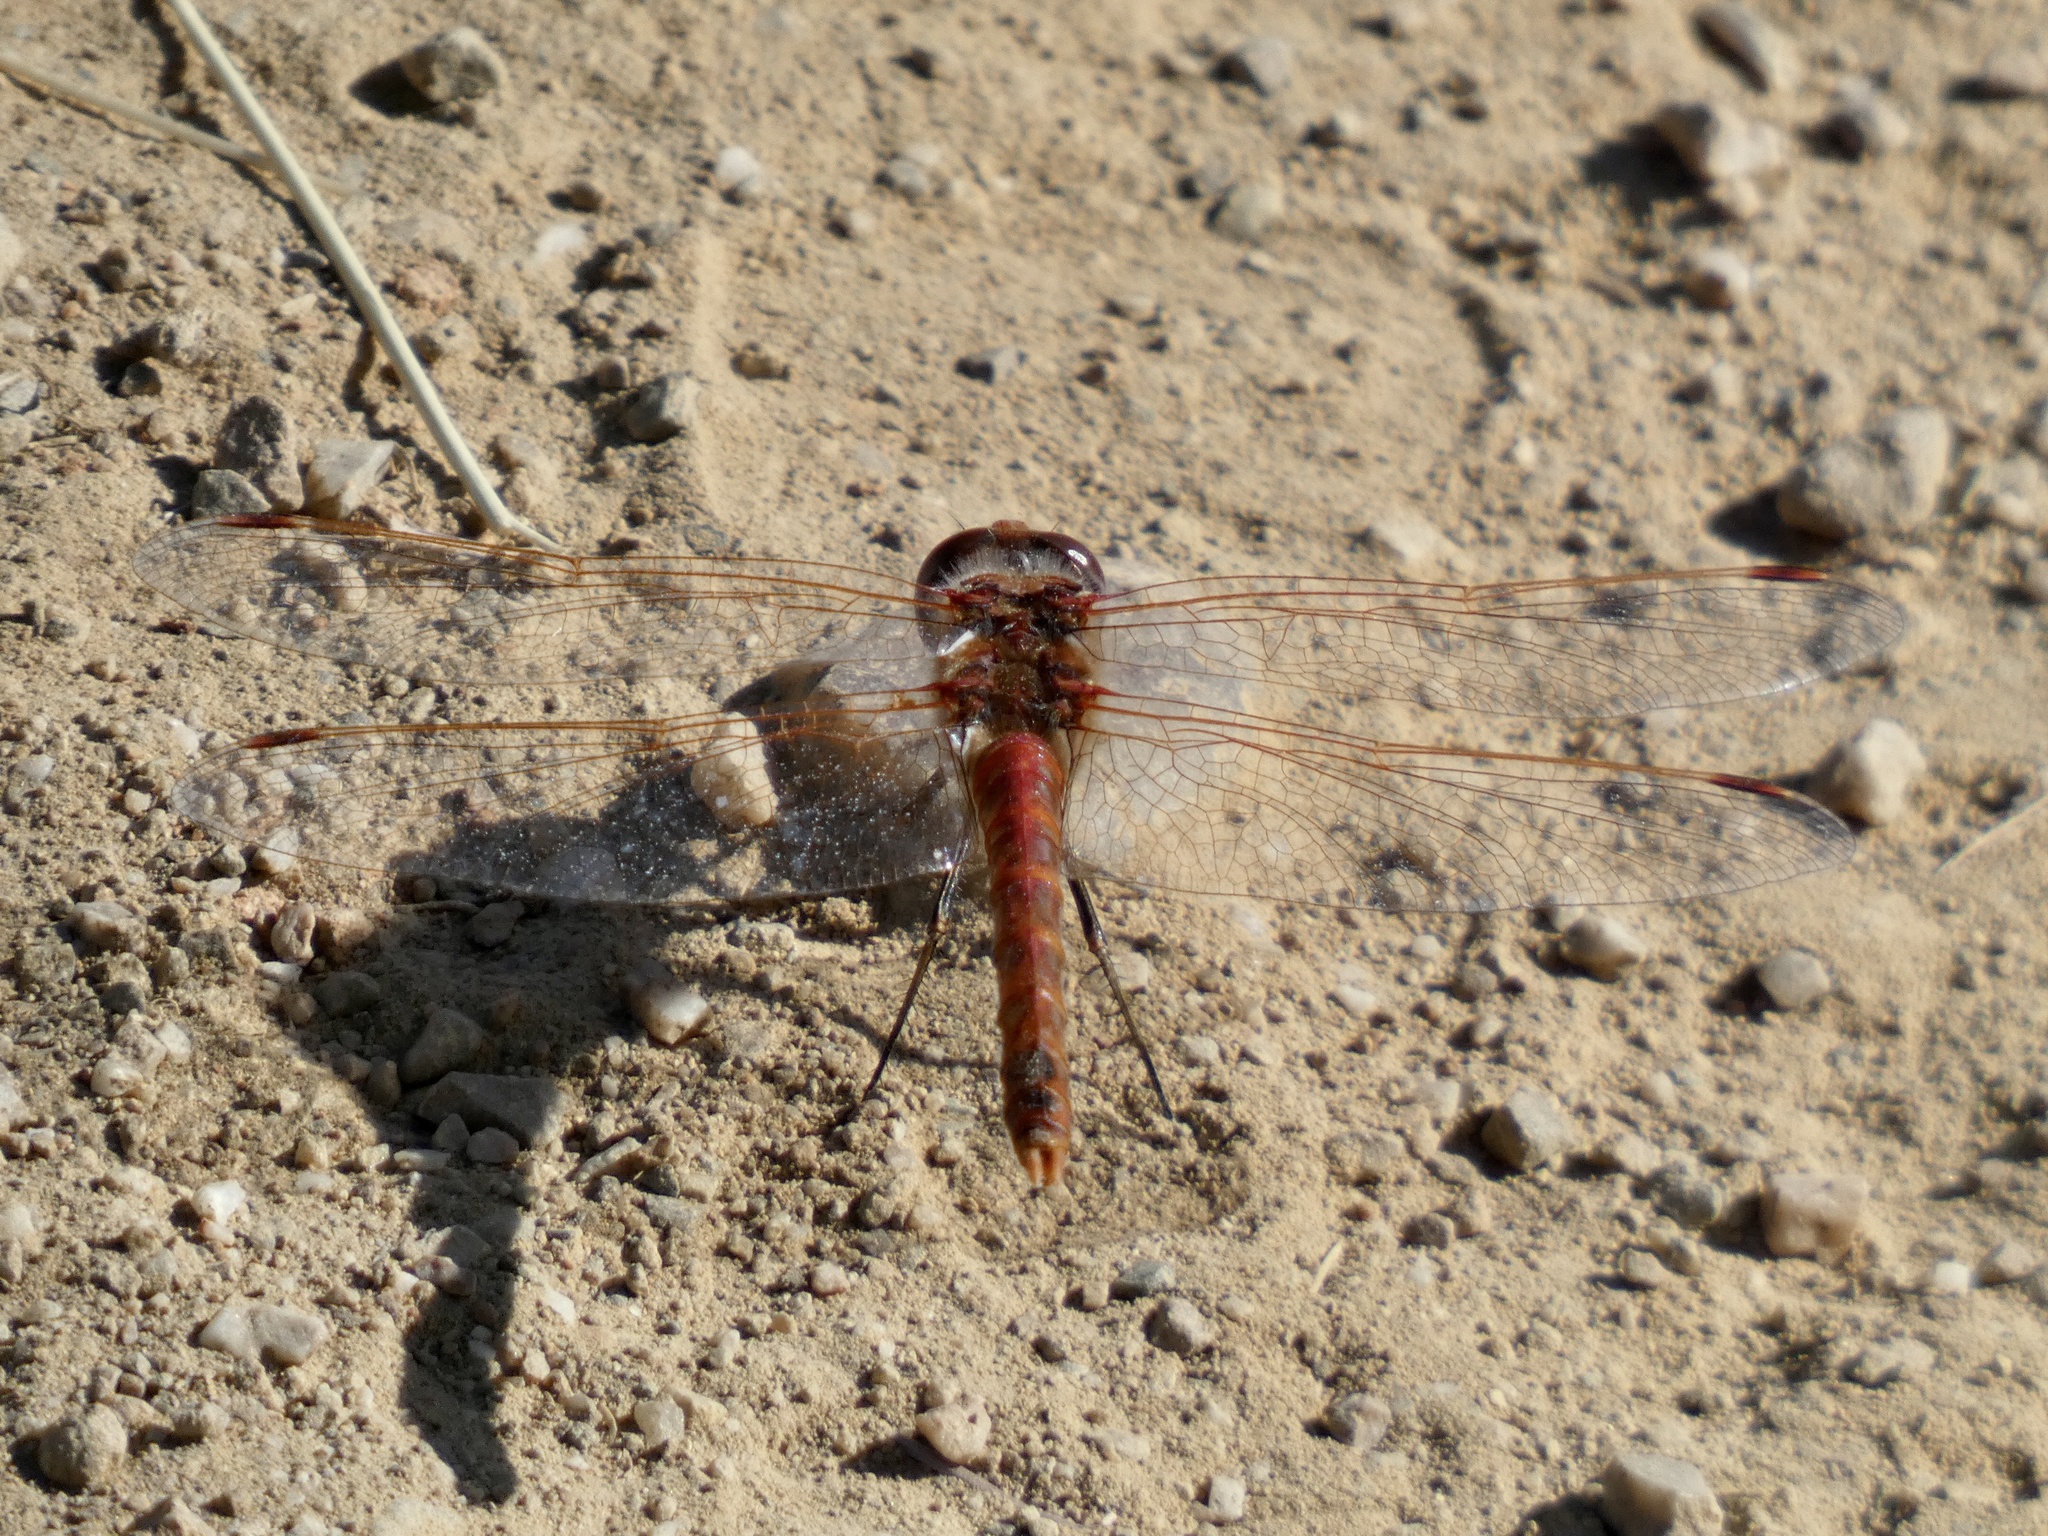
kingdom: Animalia
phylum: Arthropoda
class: Insecta
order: Odonata
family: Libellulidae
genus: Sympetrum
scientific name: Sympetrum corruptum
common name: Variegated meadowhawk
